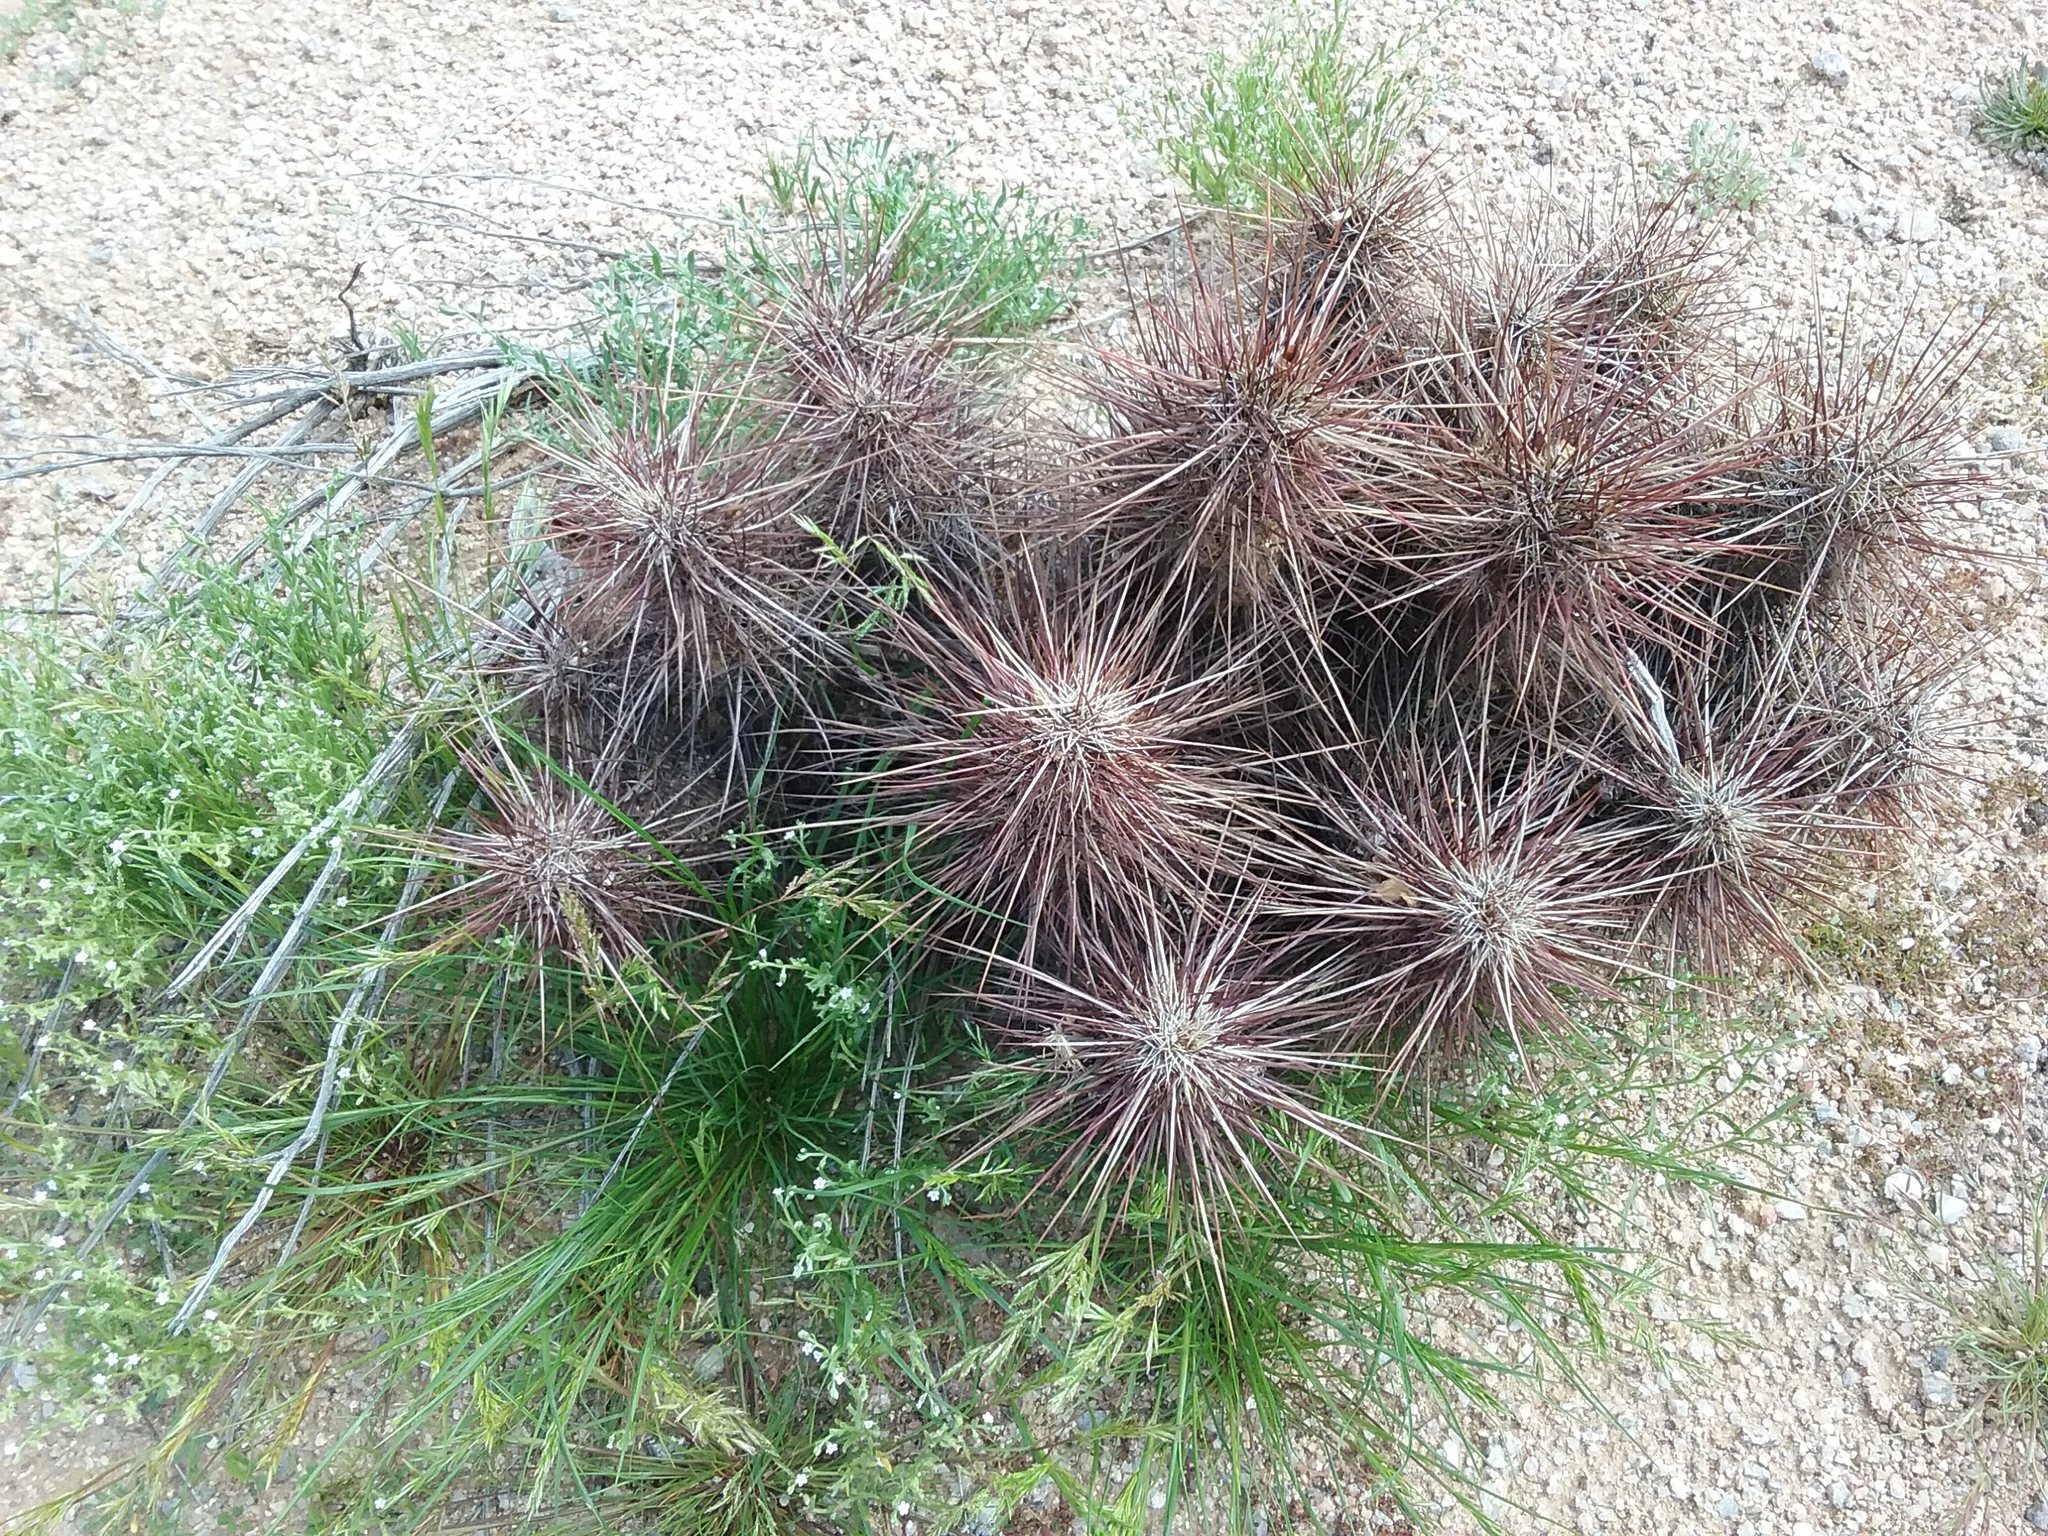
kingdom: Plantae
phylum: Tracheophyta
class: Magnoliopsida
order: Caryophyllales
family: Cactaceae
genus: Echinocereus
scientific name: Echinocereus engelmannii
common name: Engelmann's hedgehog cactus
